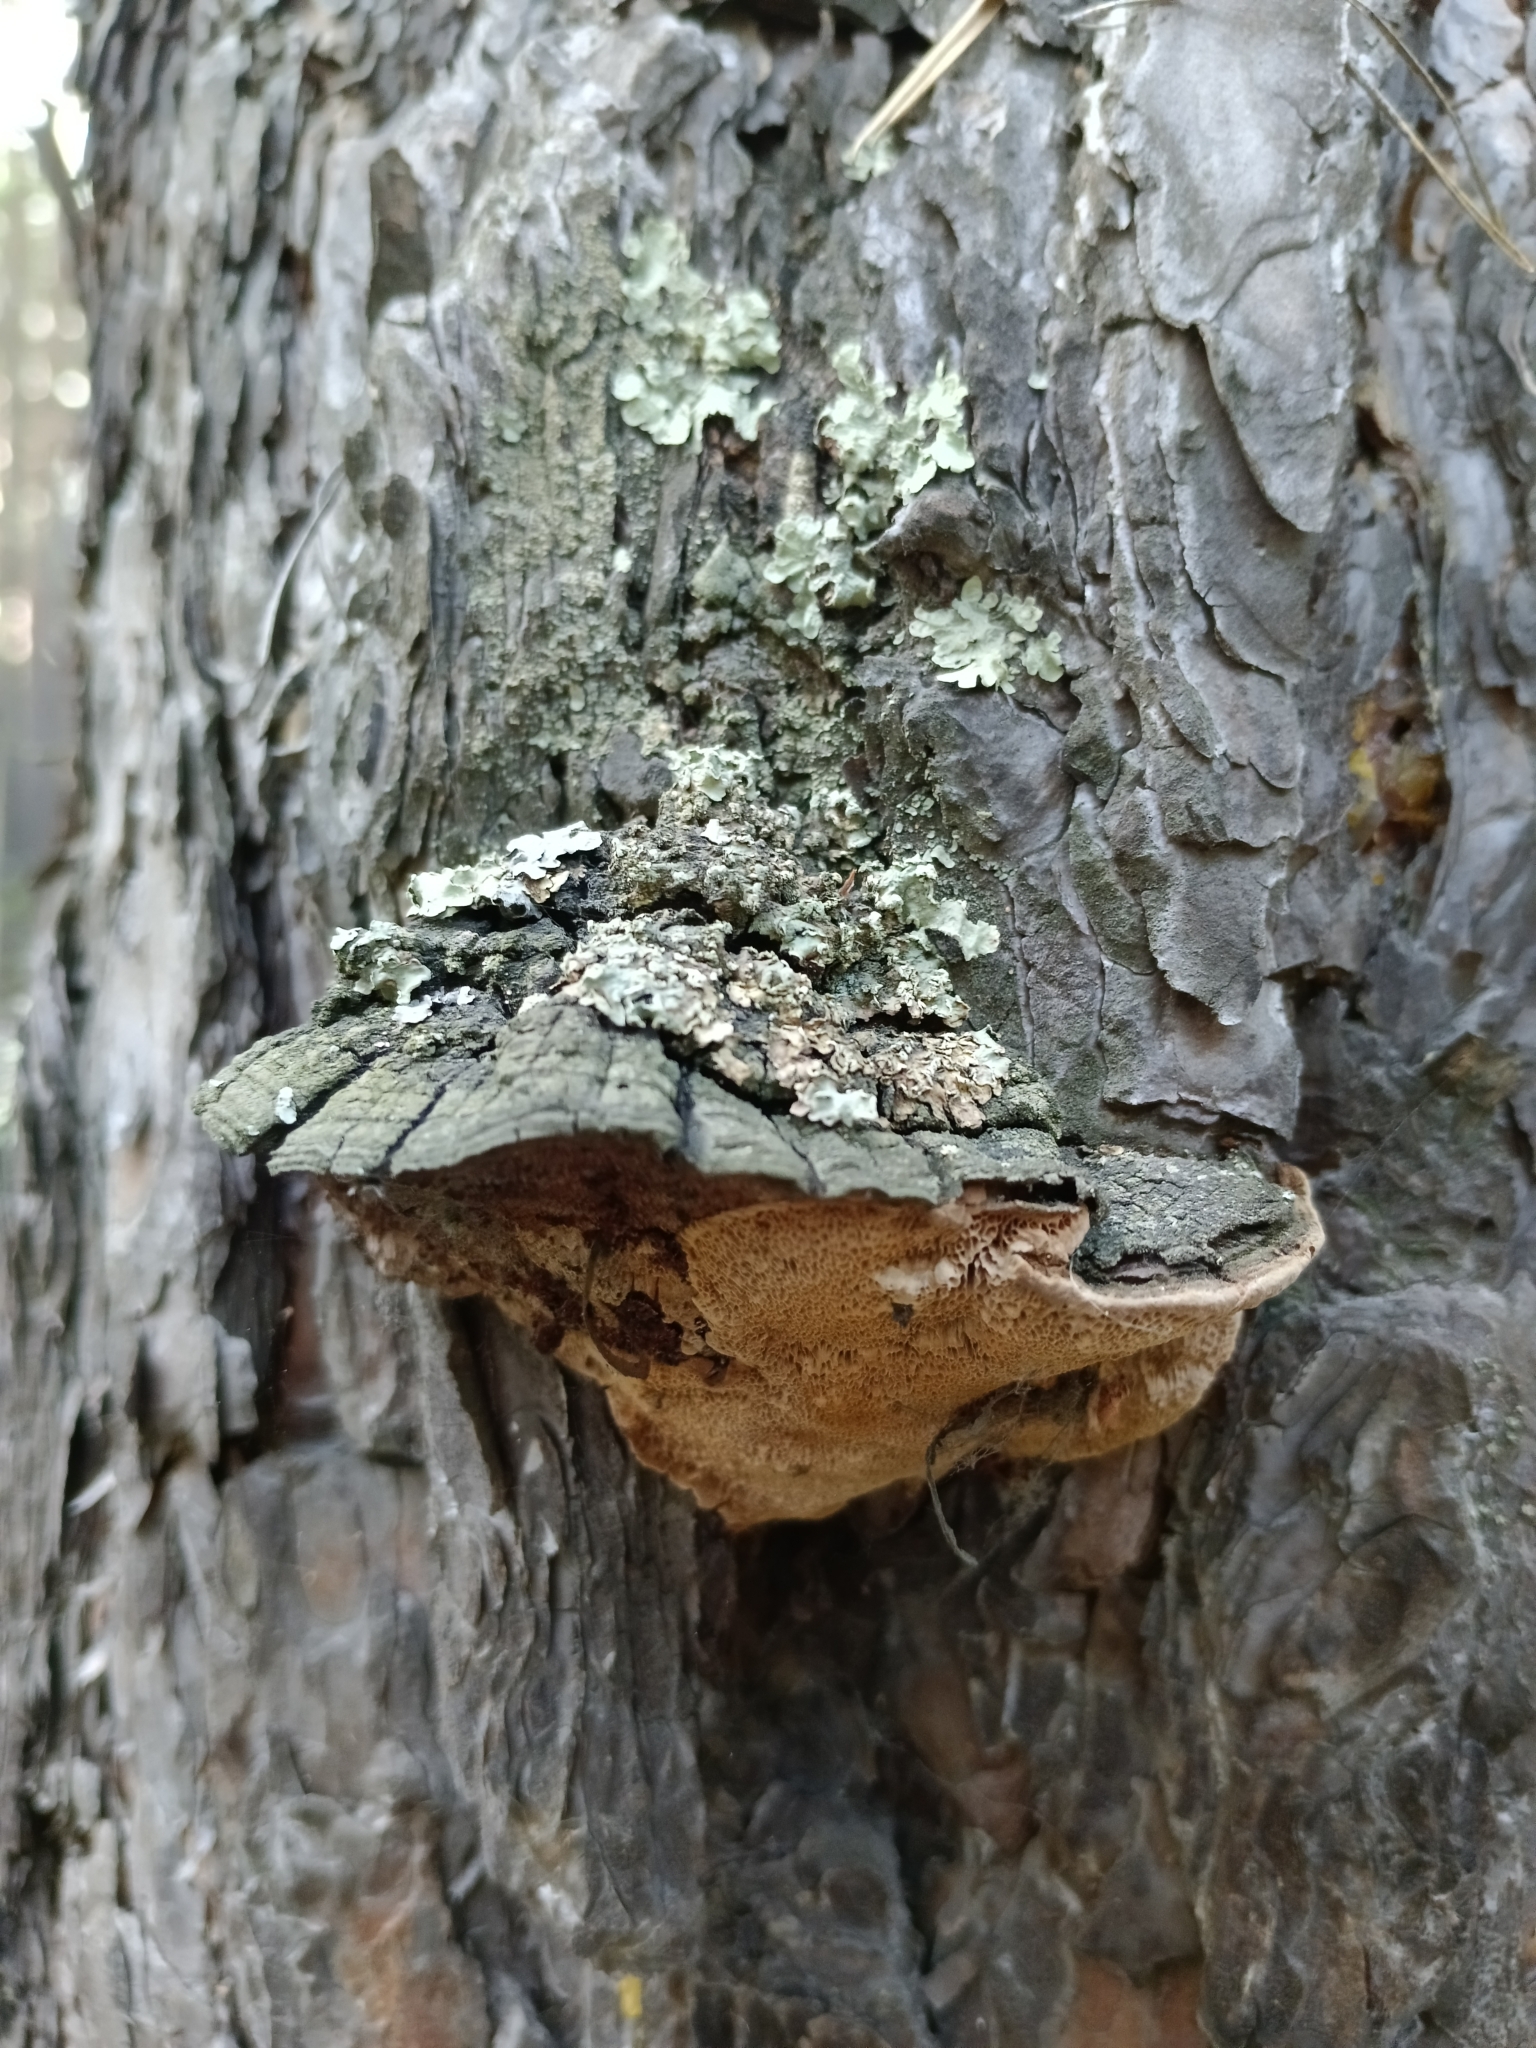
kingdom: Fungi
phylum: Basidiomycota
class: Agaricomycetes
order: Hymenochaetales
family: Hymenochaetaceae
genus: Porodaedalea
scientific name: Porodaedalea pini
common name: Pine bracket
